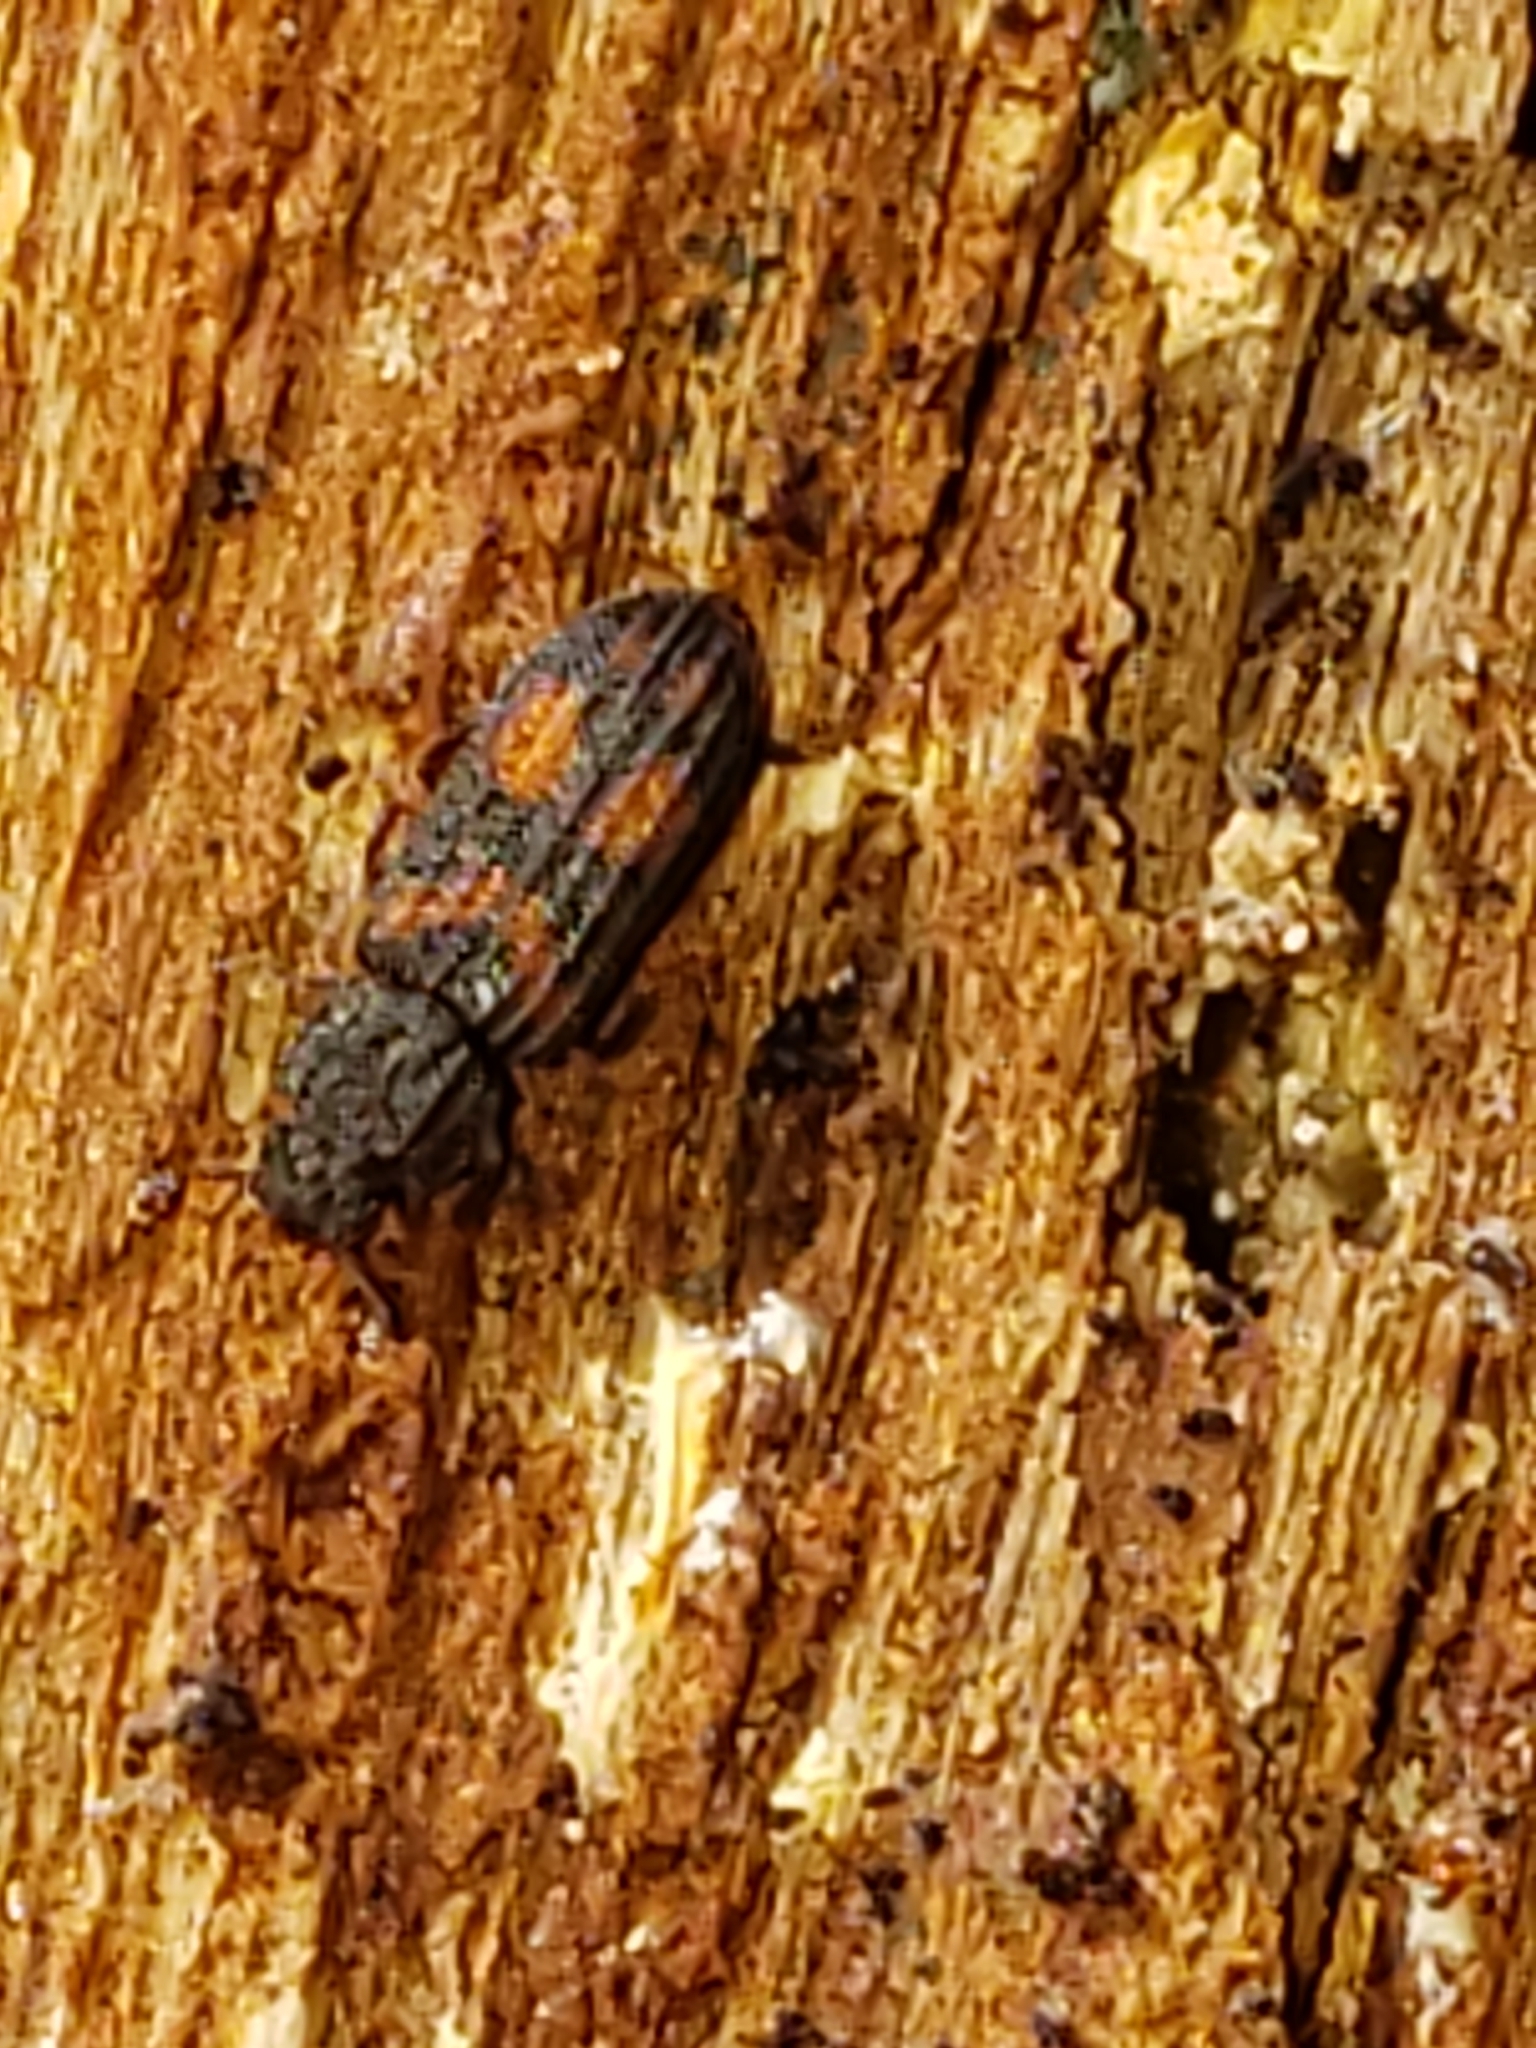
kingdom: Animalia
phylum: Arthropoda
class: Insecta
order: Coleoptera
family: Zopheridae
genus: Bitoma
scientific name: Bitoma quadriguttata
